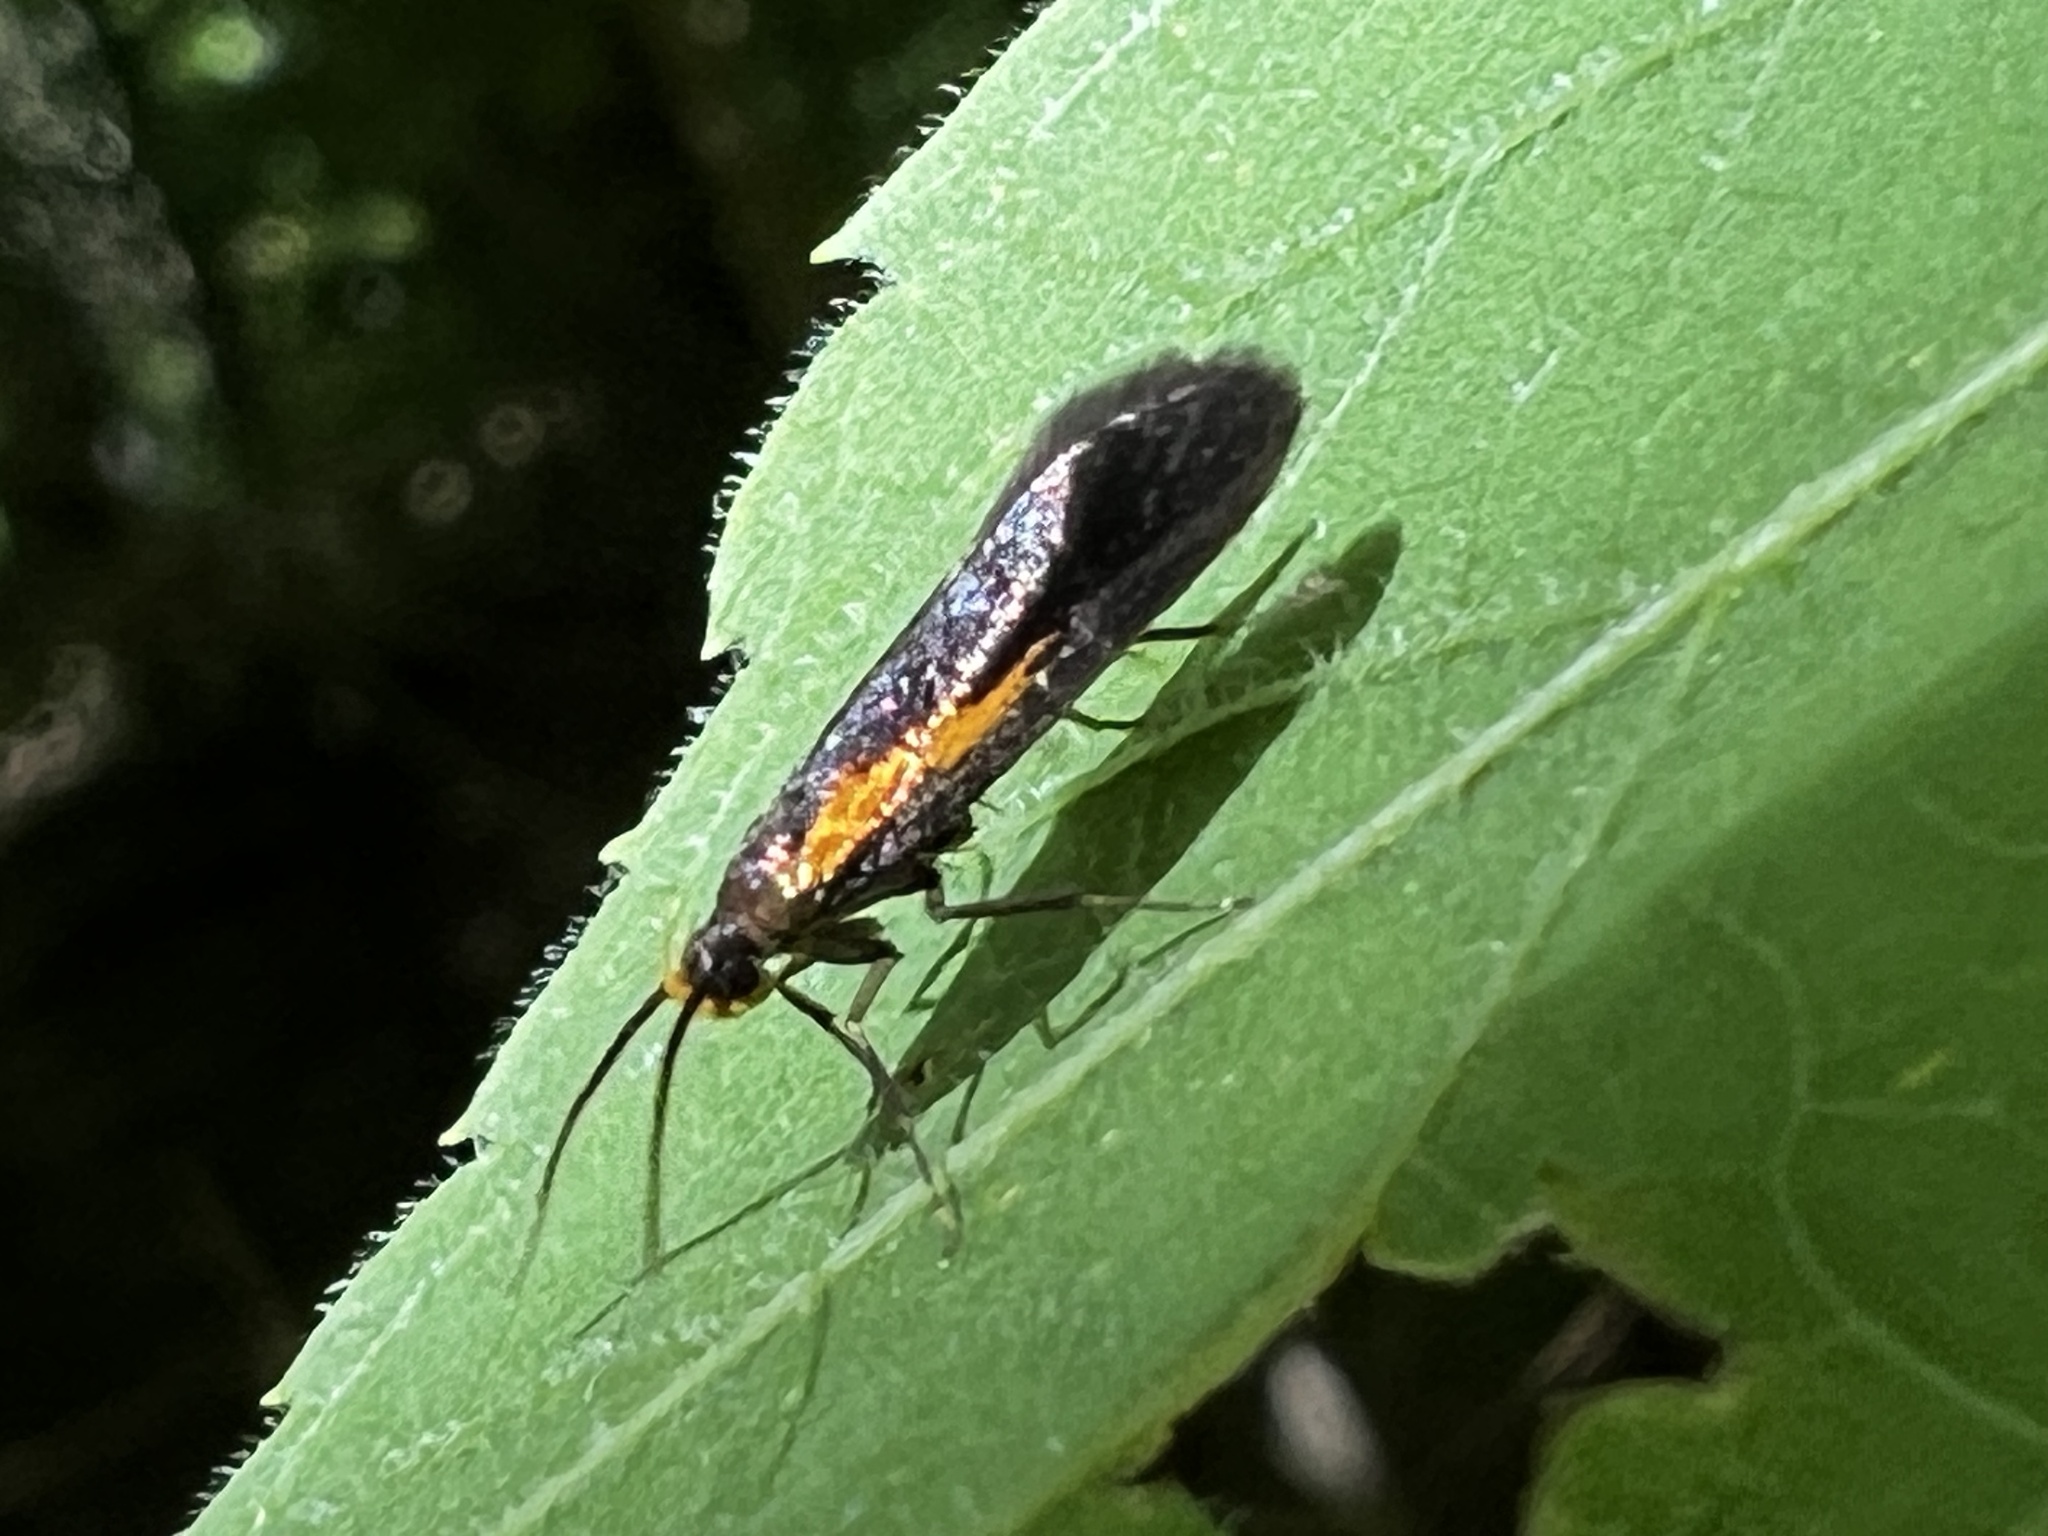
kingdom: Animalia
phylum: Arthropoda
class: Insecta
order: Lepidoptera
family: Oecophoridae
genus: Mathildana
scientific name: Mathildana newmanella
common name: Newman's mathildana moth
